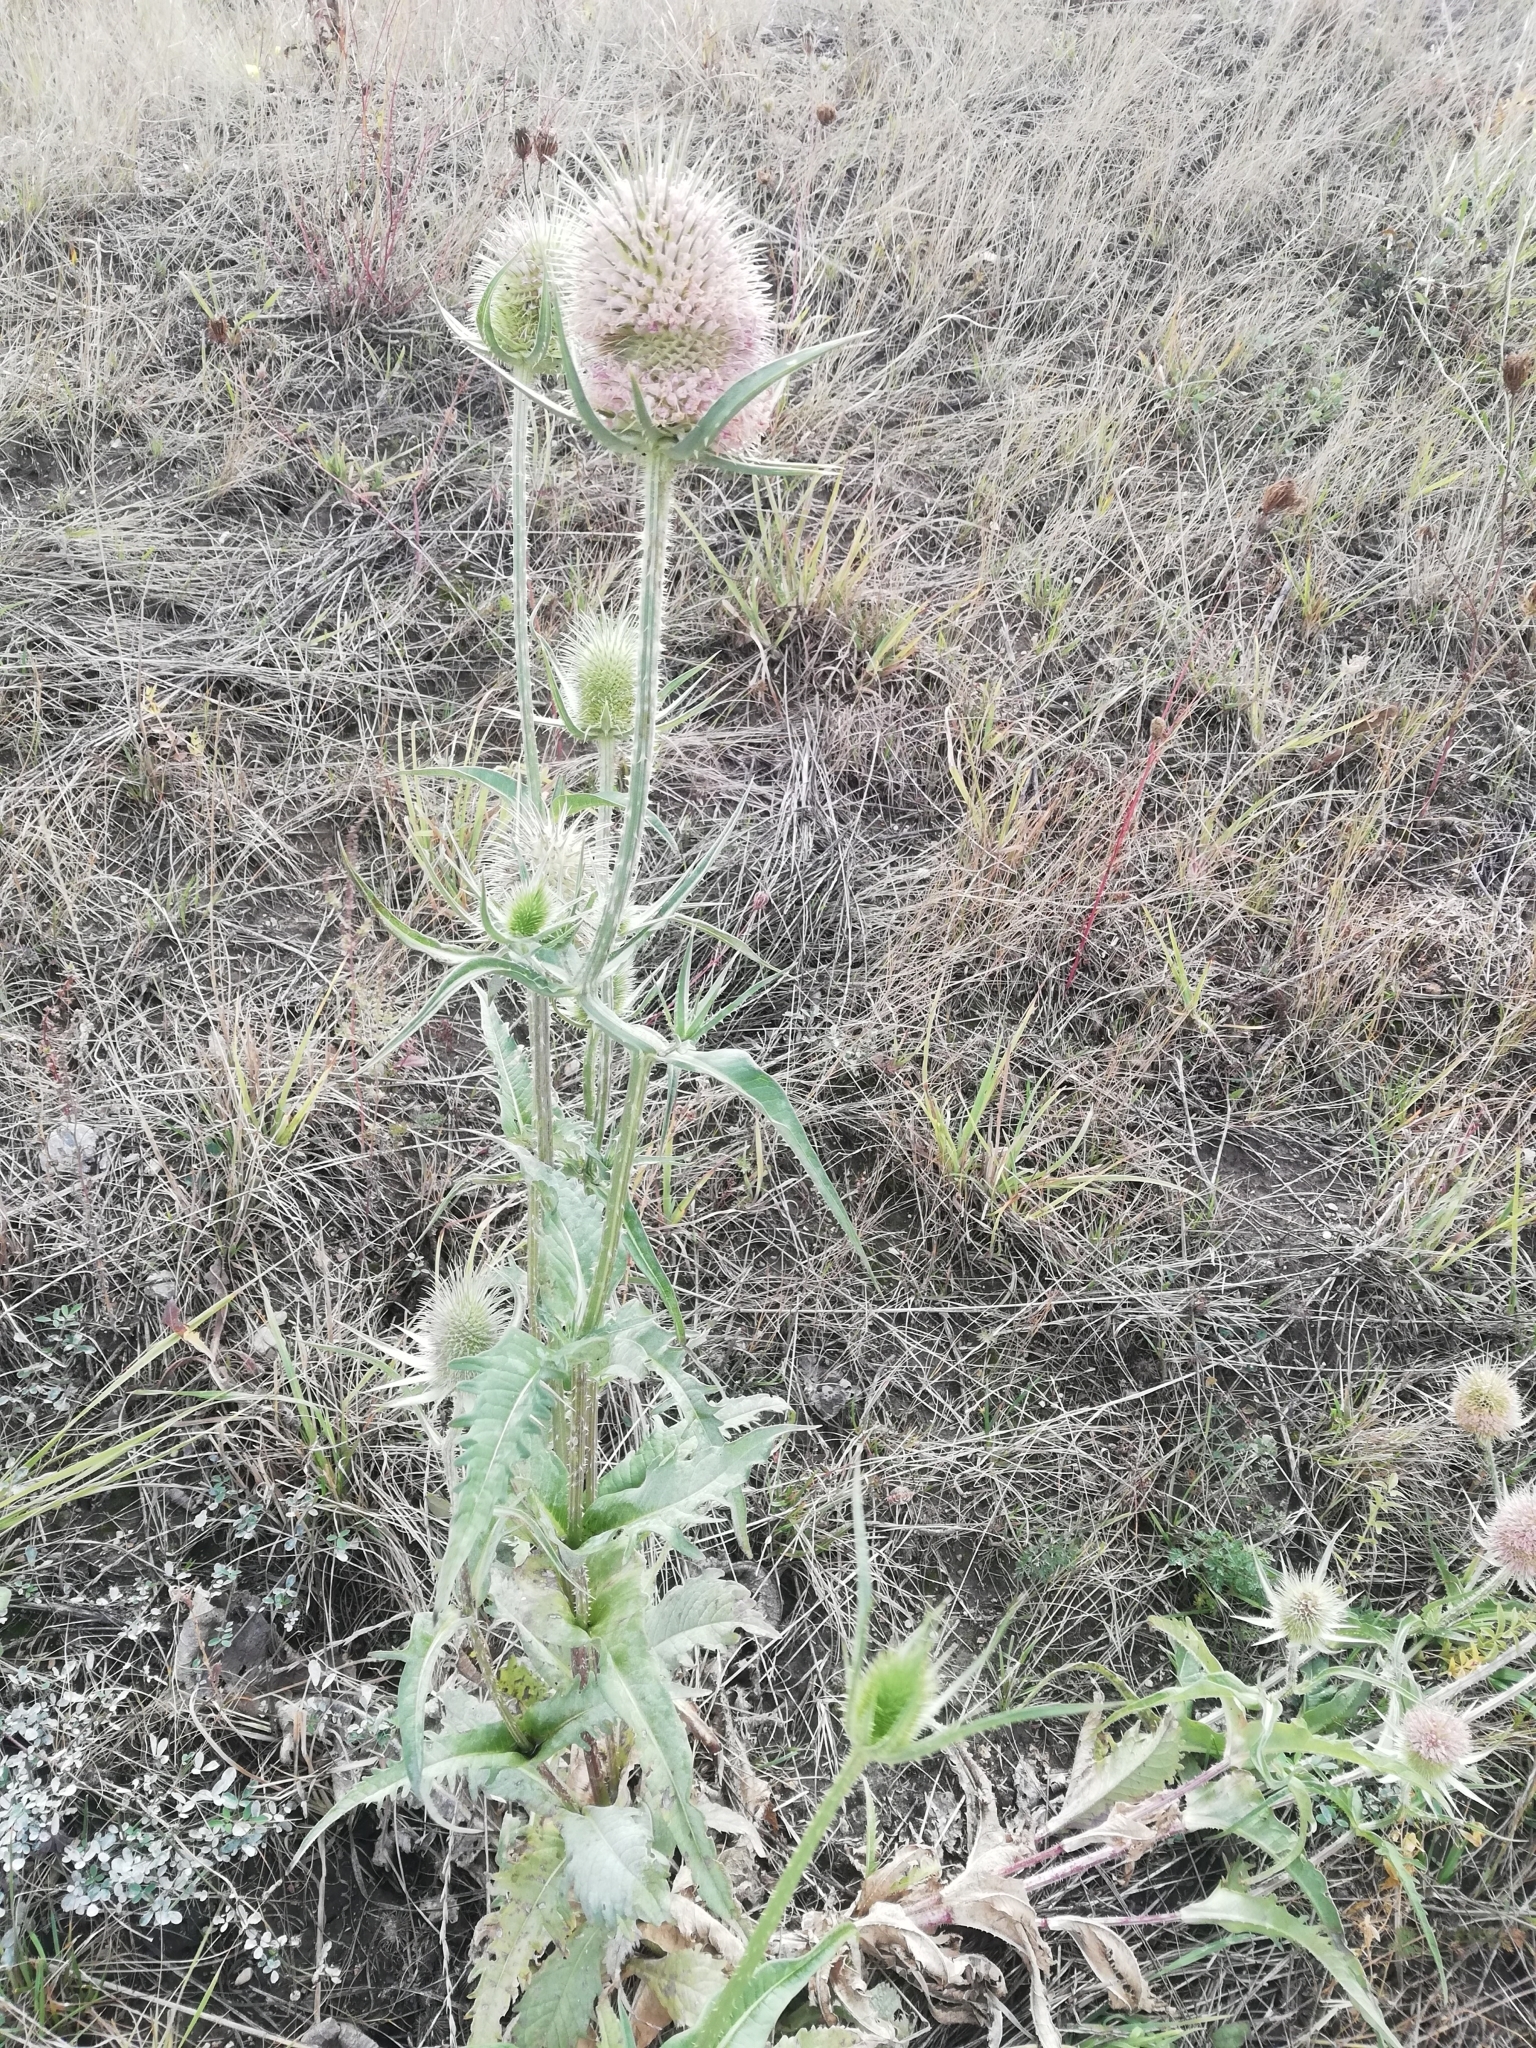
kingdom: Plantae
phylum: Tracheophyta
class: Magnoliopsida
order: Dipsacales
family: Caprifoliaceae
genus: Dipsacus
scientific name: Dipsacus laciniatus
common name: Cut-leaved teasel
